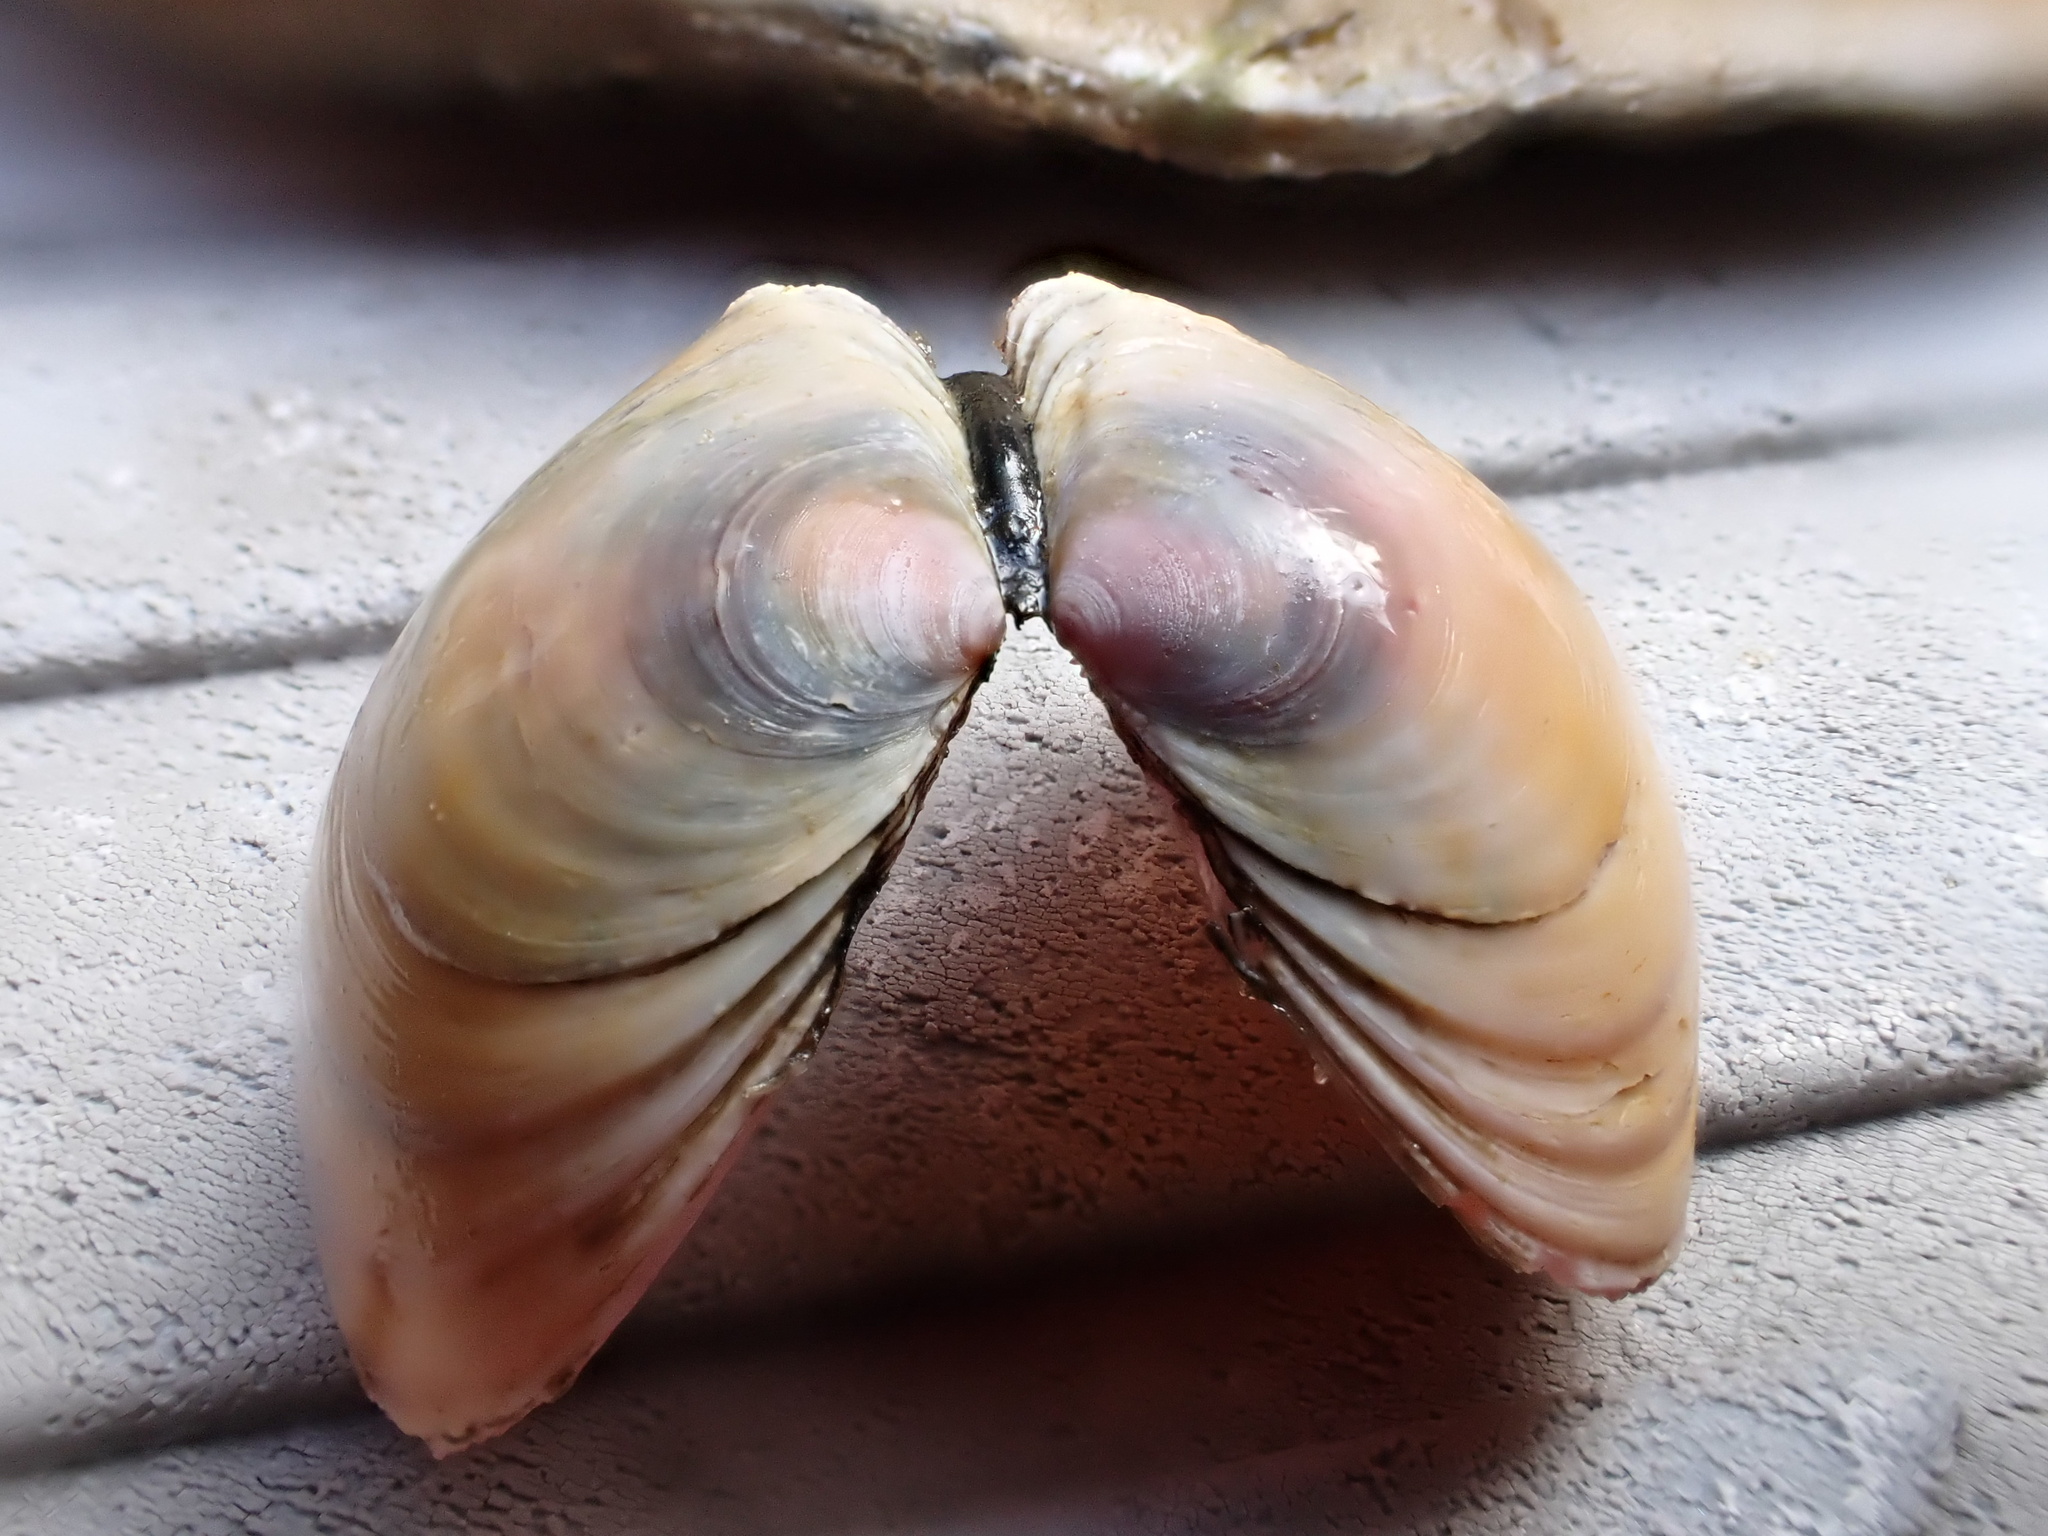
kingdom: Animalia
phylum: Mollusca
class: Bivalvia
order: Cardiida
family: Tellinidae
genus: Macoma
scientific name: Macoma balthica
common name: Baltic tellin
